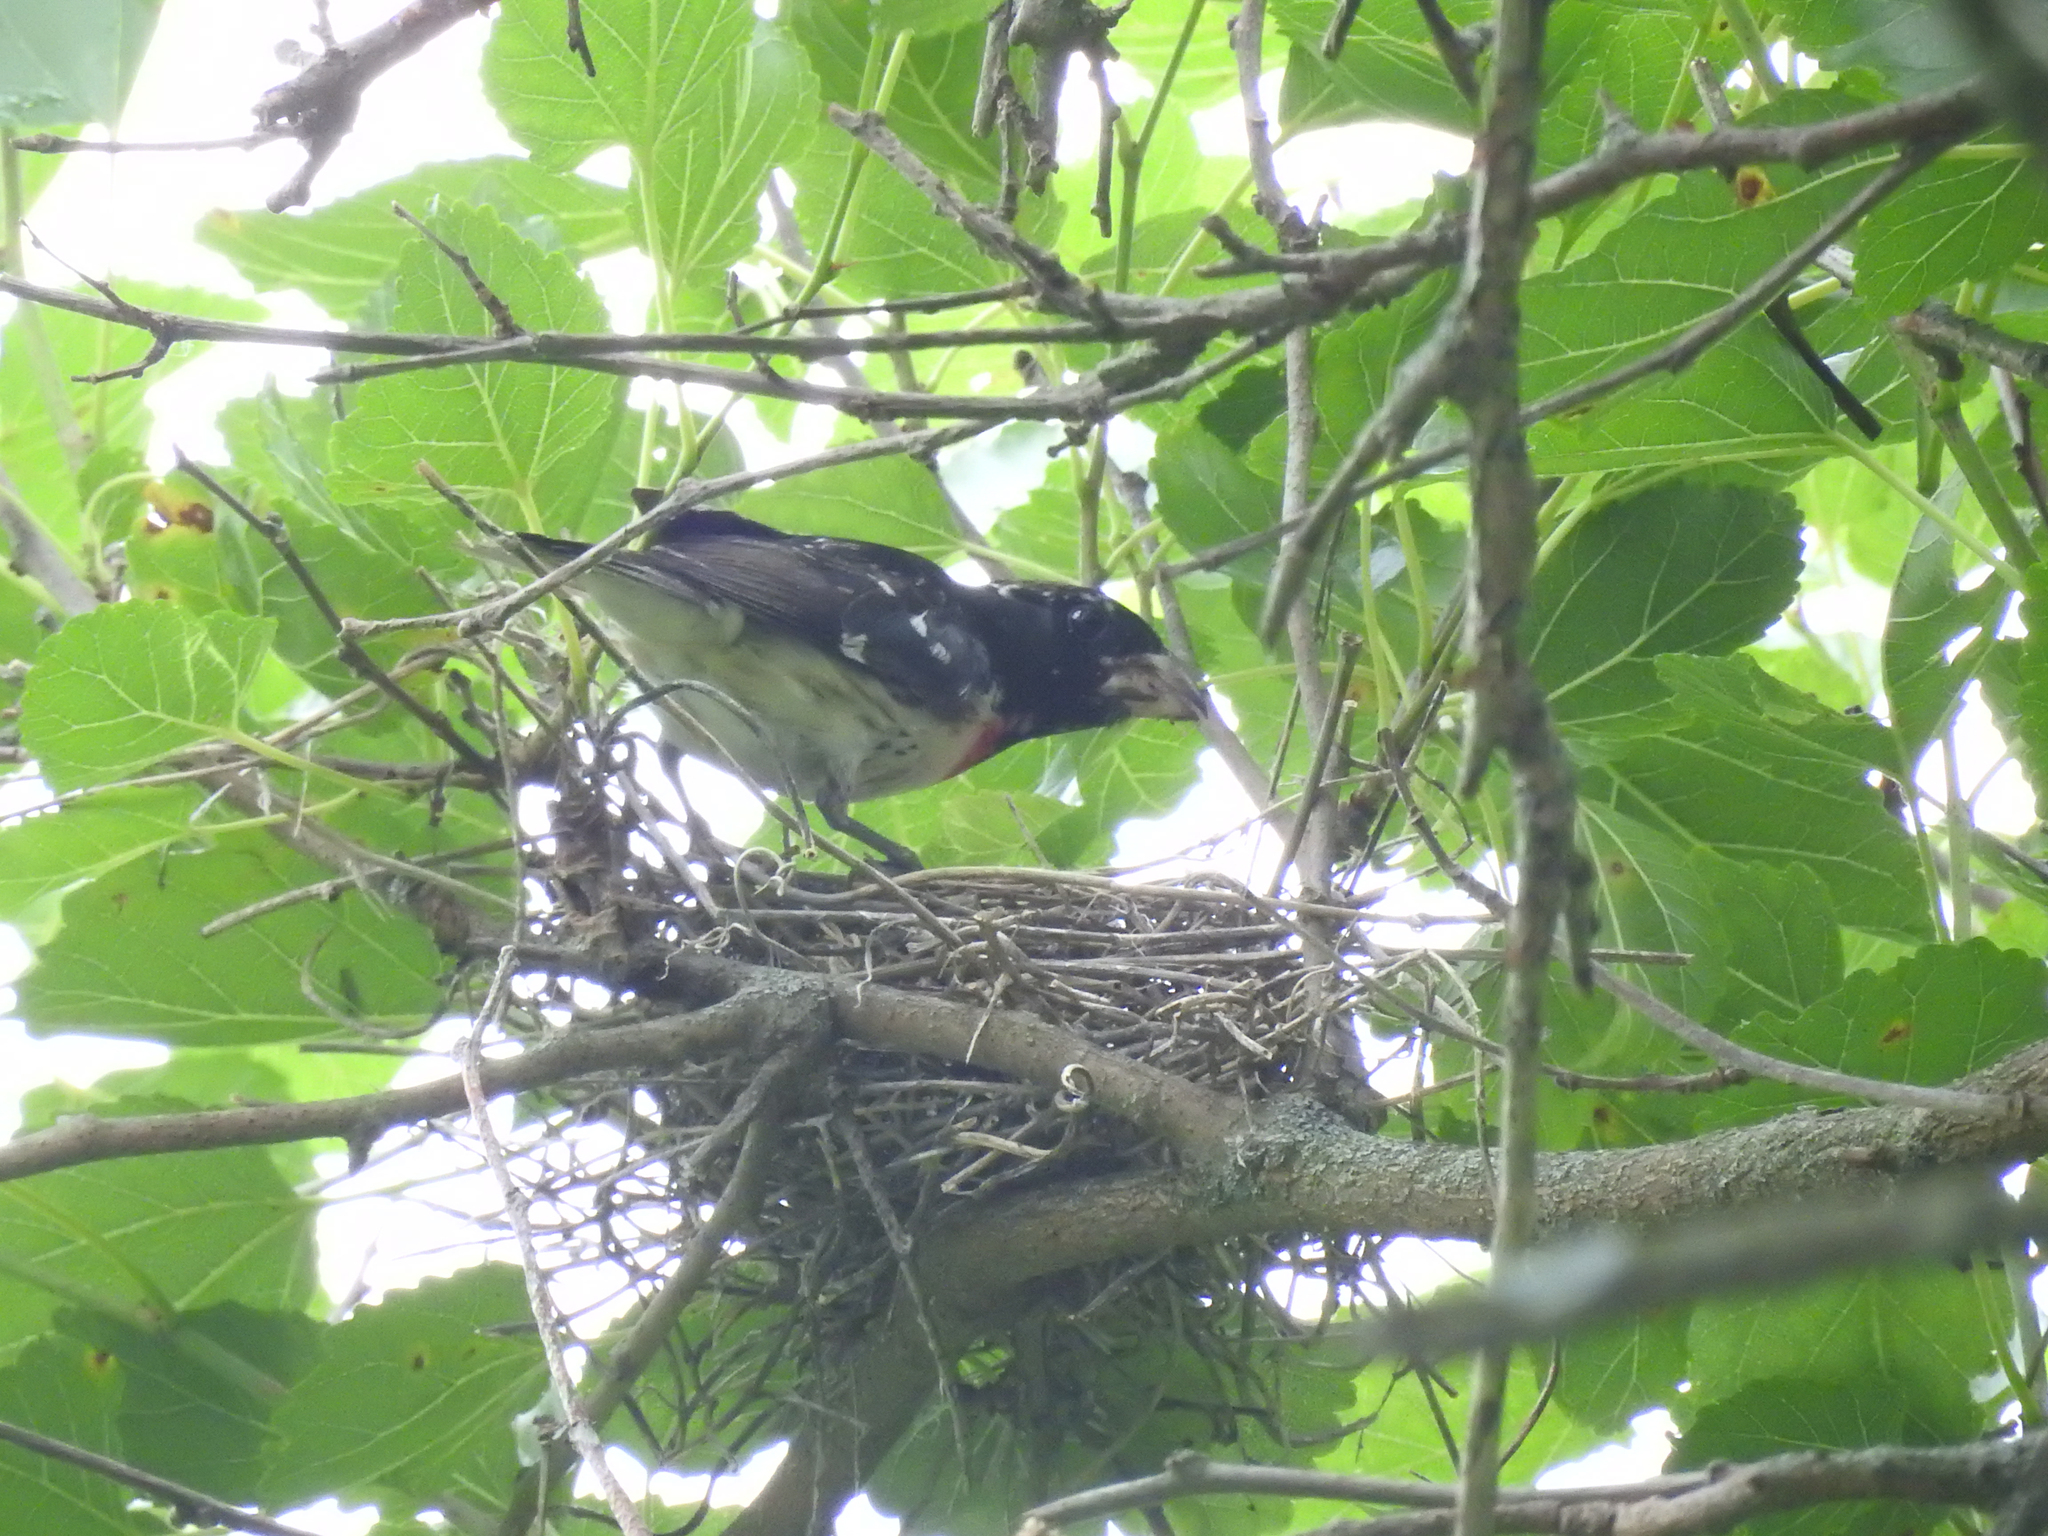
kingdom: Animalia
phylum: Chordata
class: Aves
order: Passeriformes
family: Cardinalidae
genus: Pheucticus
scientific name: Pheucticus ludovicianus
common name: Rose-breasted grosbeak
